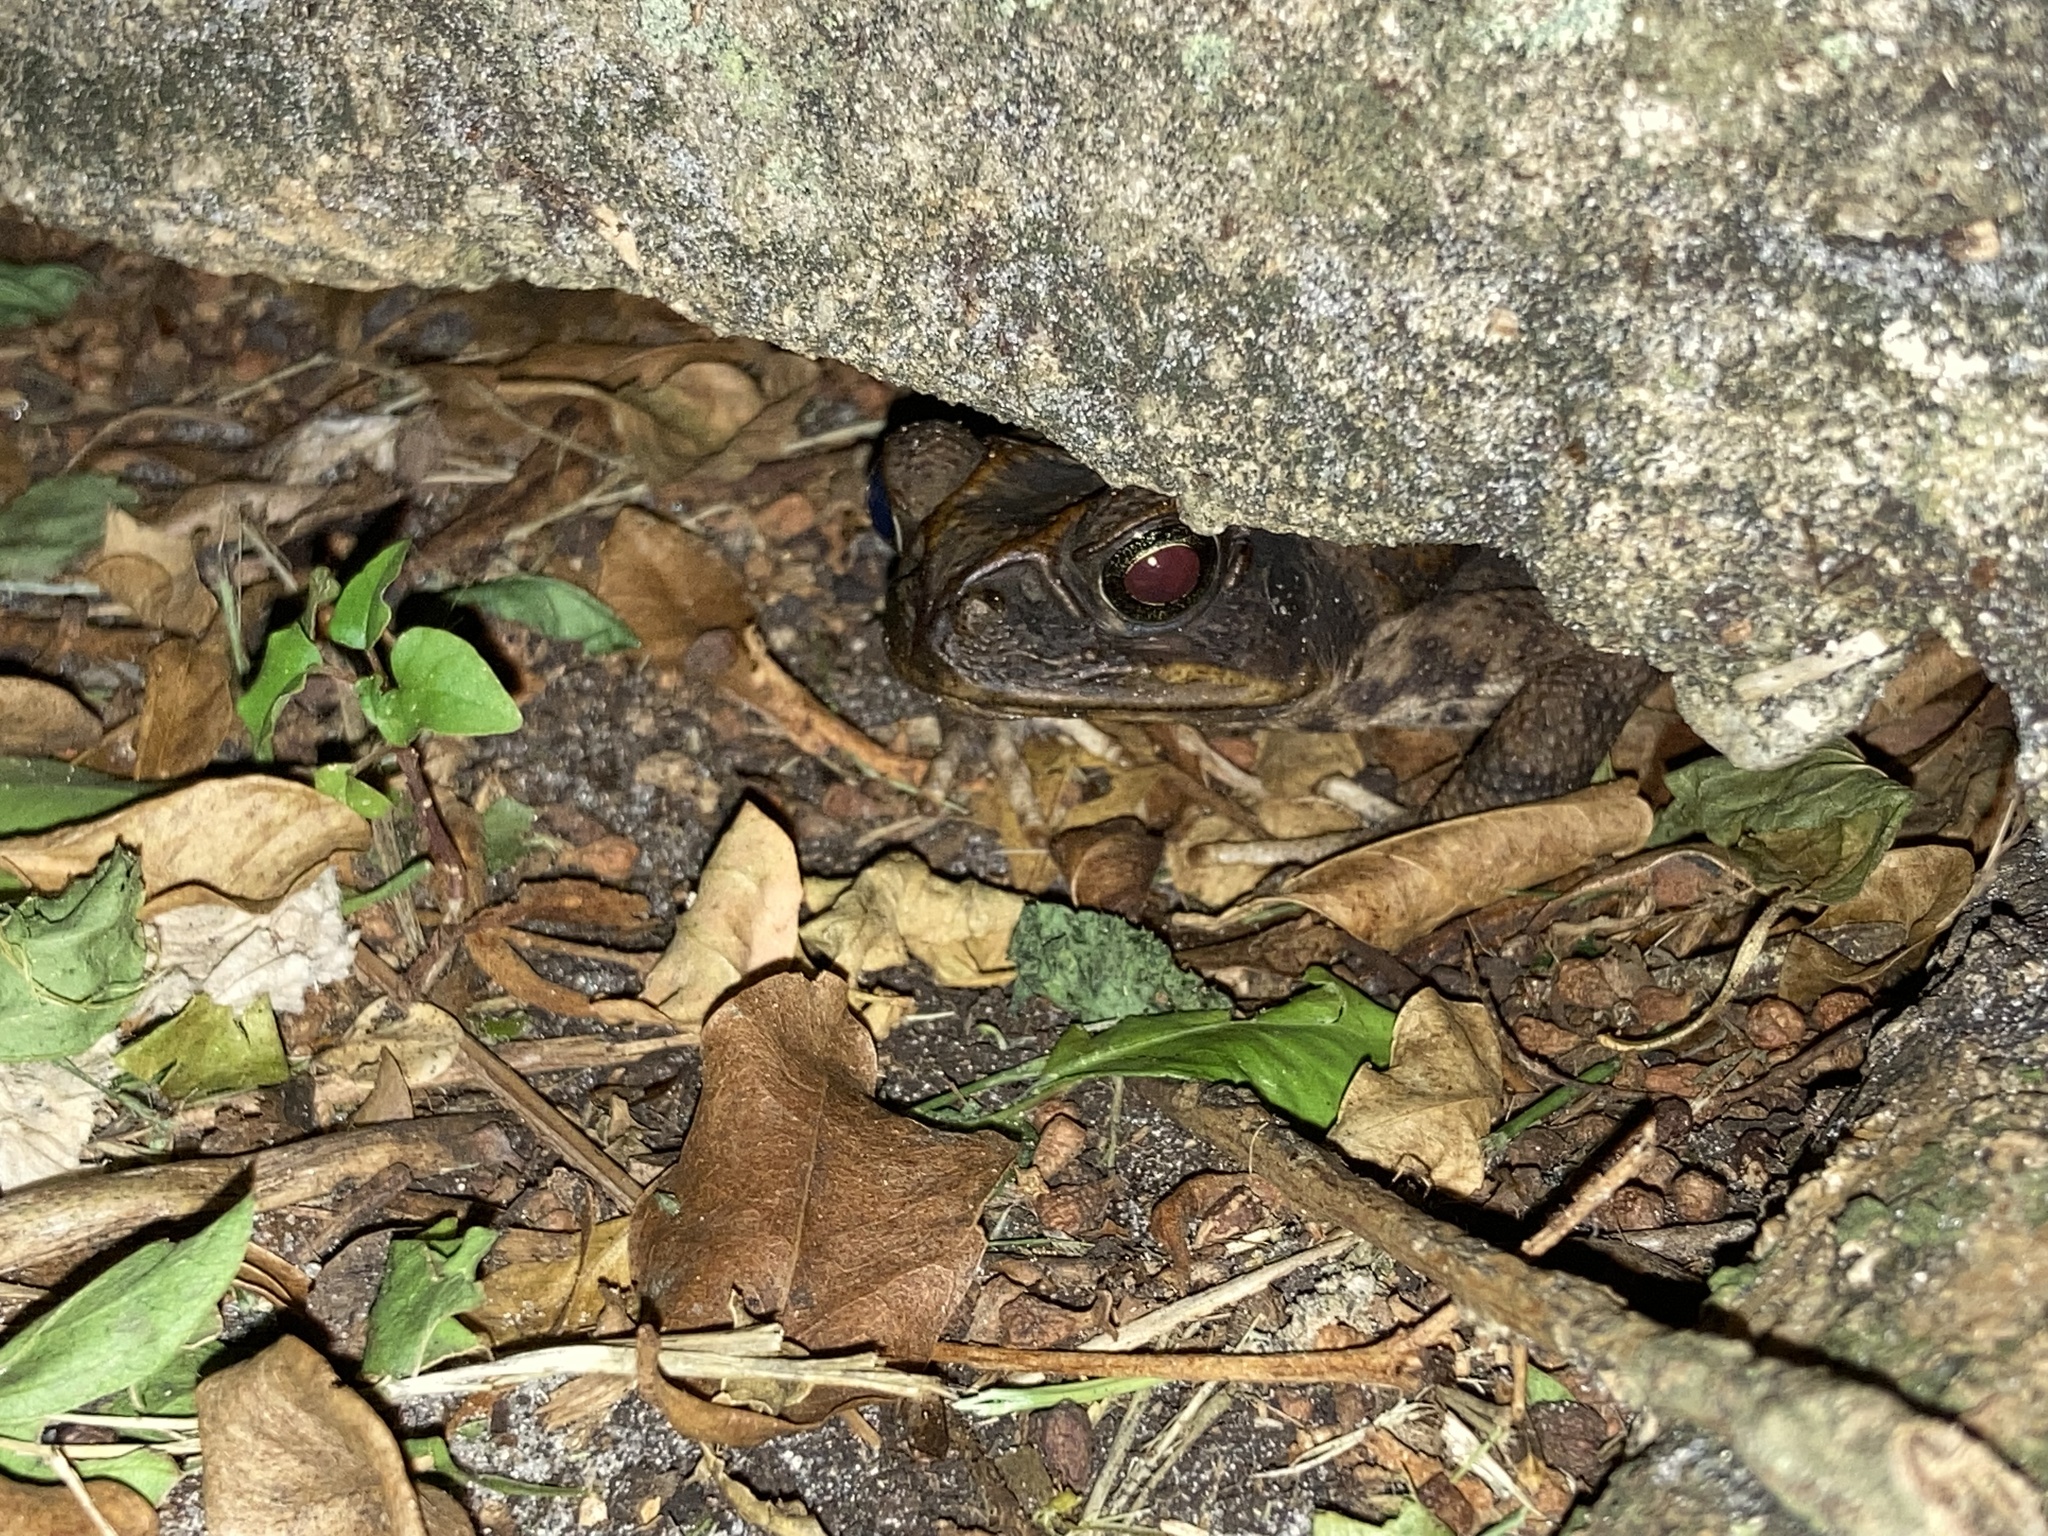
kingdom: Animalia
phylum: Chordata
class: Amphibia
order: Anura
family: Bufonidae
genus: Rhinella
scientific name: Rhinella marina
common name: Cane toad
